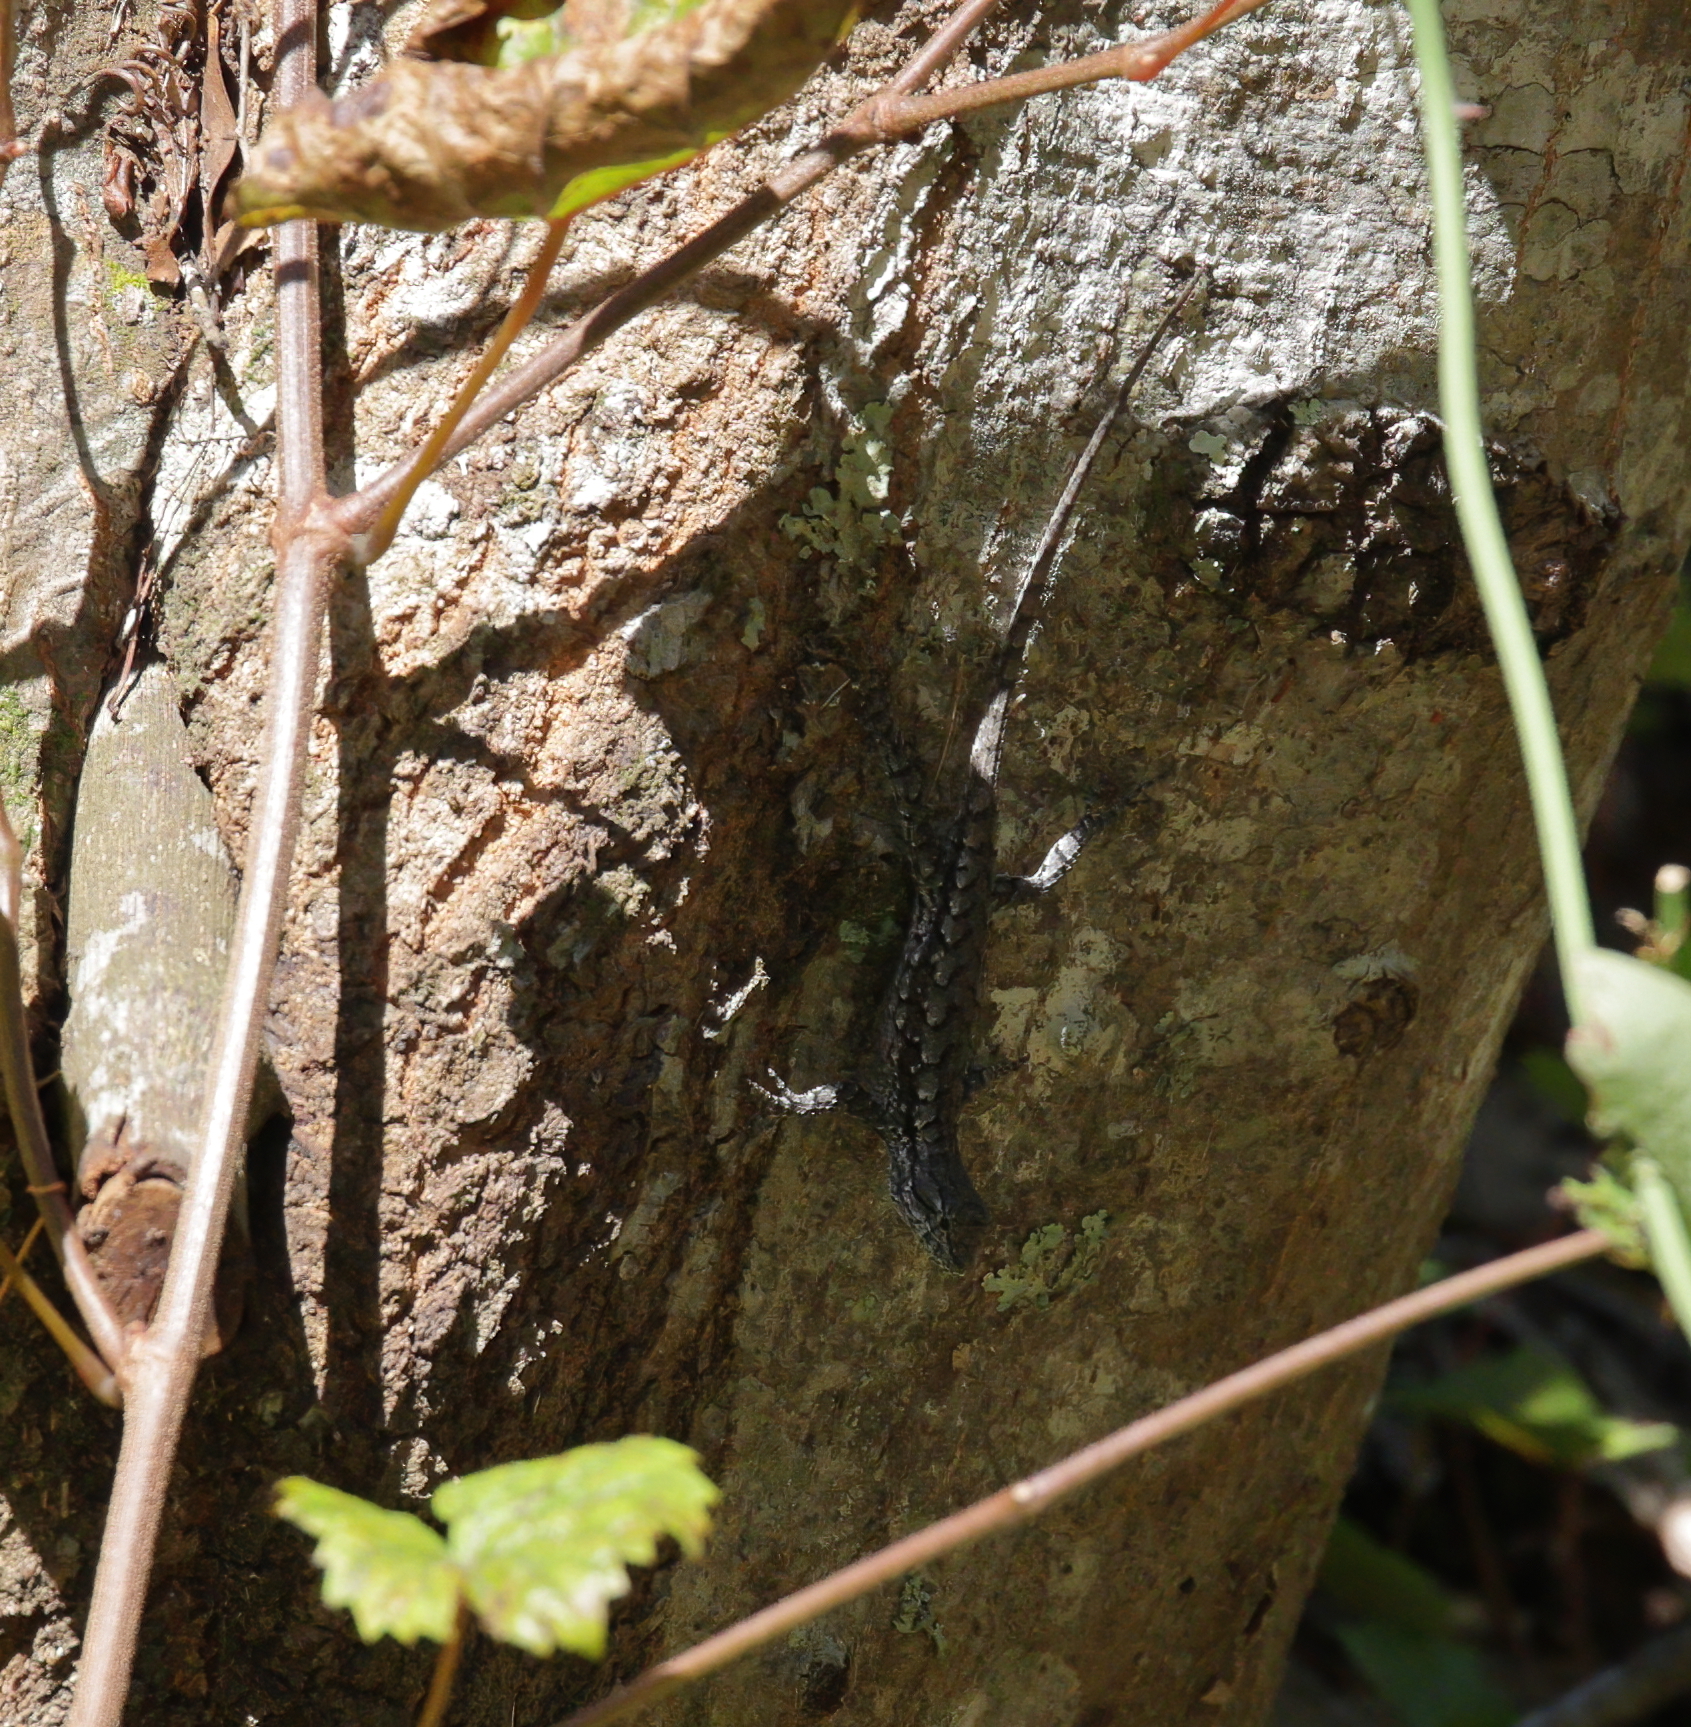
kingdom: Animalia
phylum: Chordata
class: Squamata
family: Phrynosomatidae
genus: Sceloporus
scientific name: Sceloporus undulatus
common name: Eastern fence lizard
